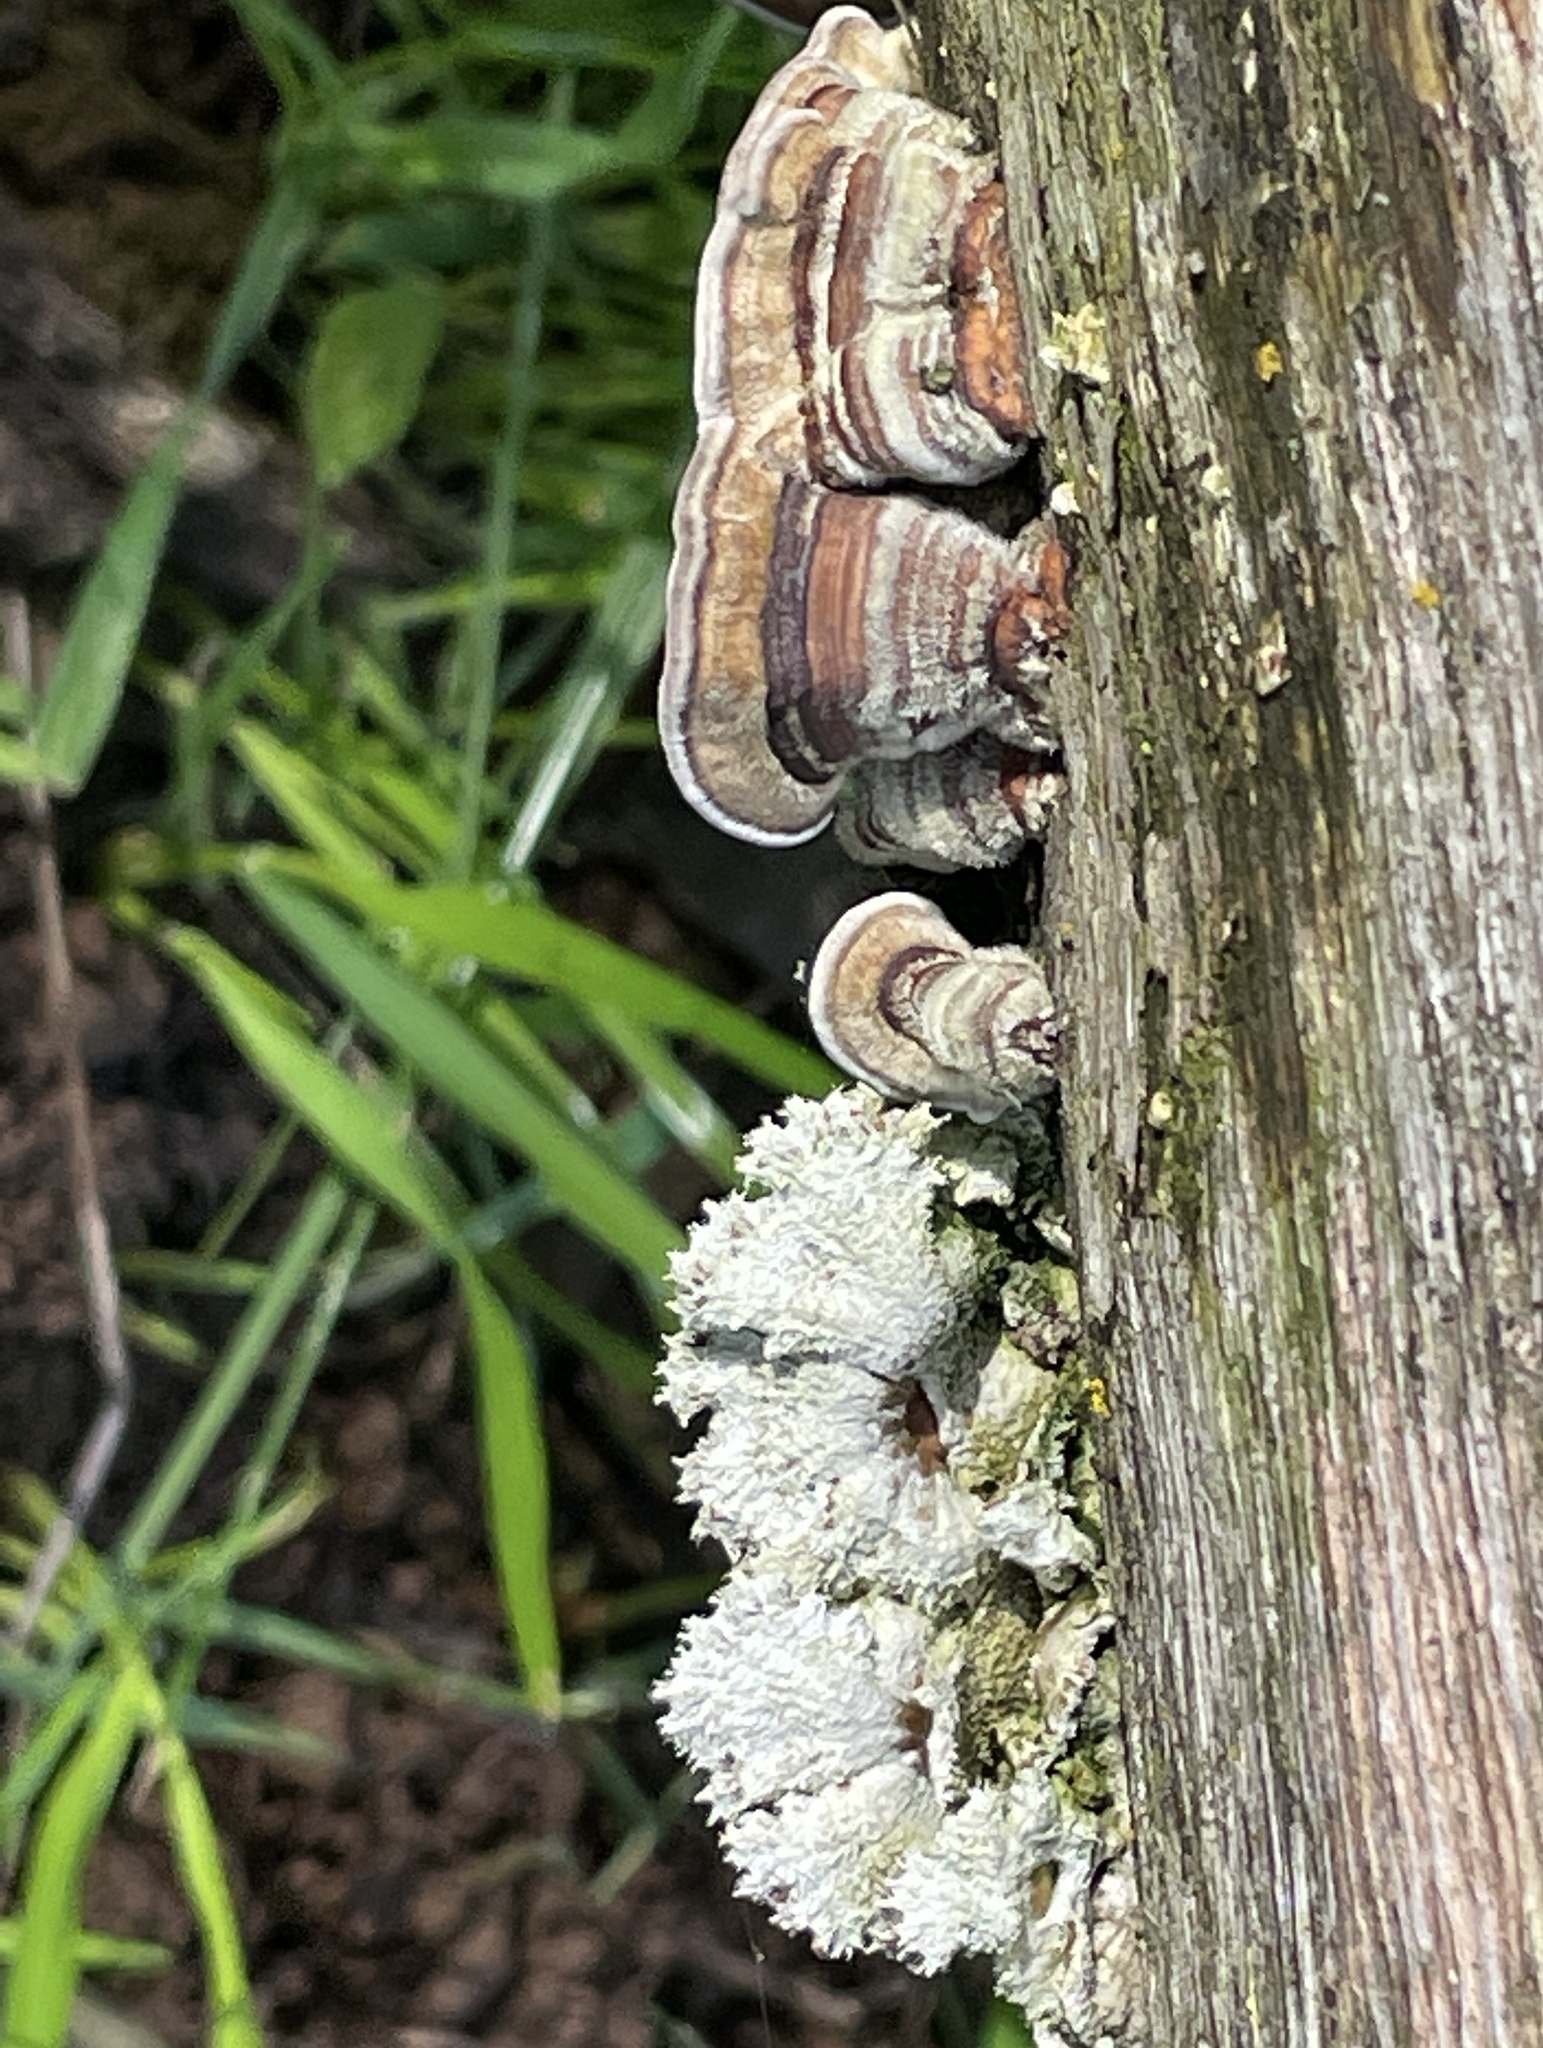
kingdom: Fungi
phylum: Basidiomycota
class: Agaricomycetes
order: Polyporales
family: Polyporaceae
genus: Trametes
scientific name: Trametes versicolor
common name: Turkeytail
